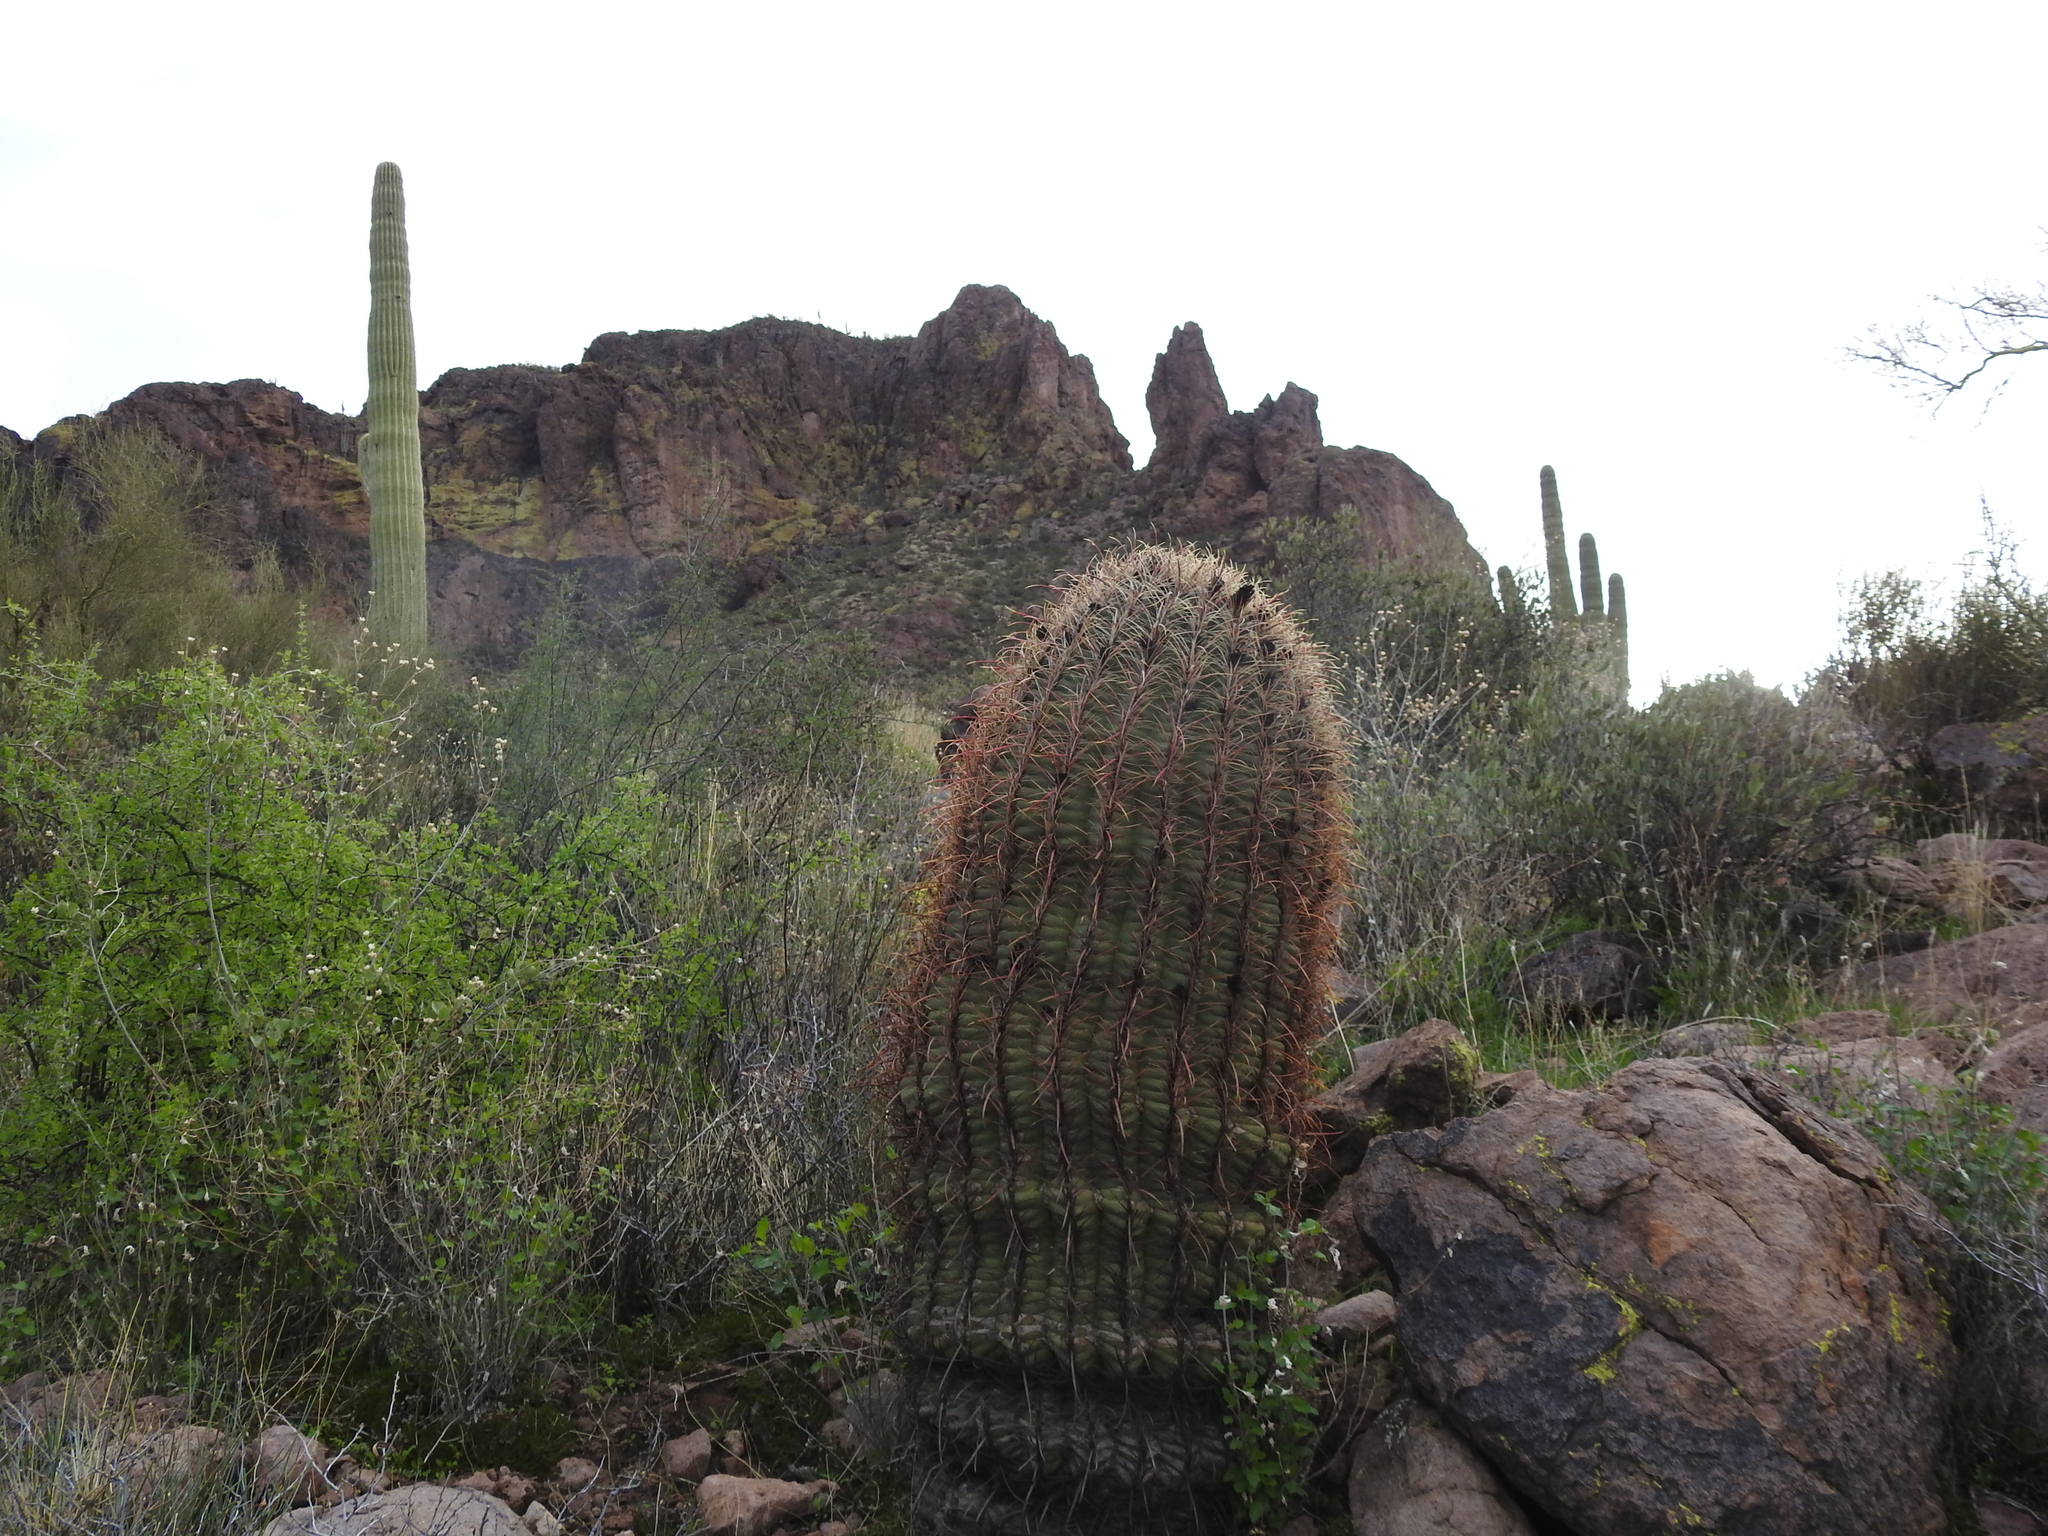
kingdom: Plantae
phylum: Tracheophyta
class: Magnoliopsida
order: Caryophyllales
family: Cactaceae
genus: Ferocactus
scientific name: Ferocactus cylindraceus
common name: California barrel cactus
